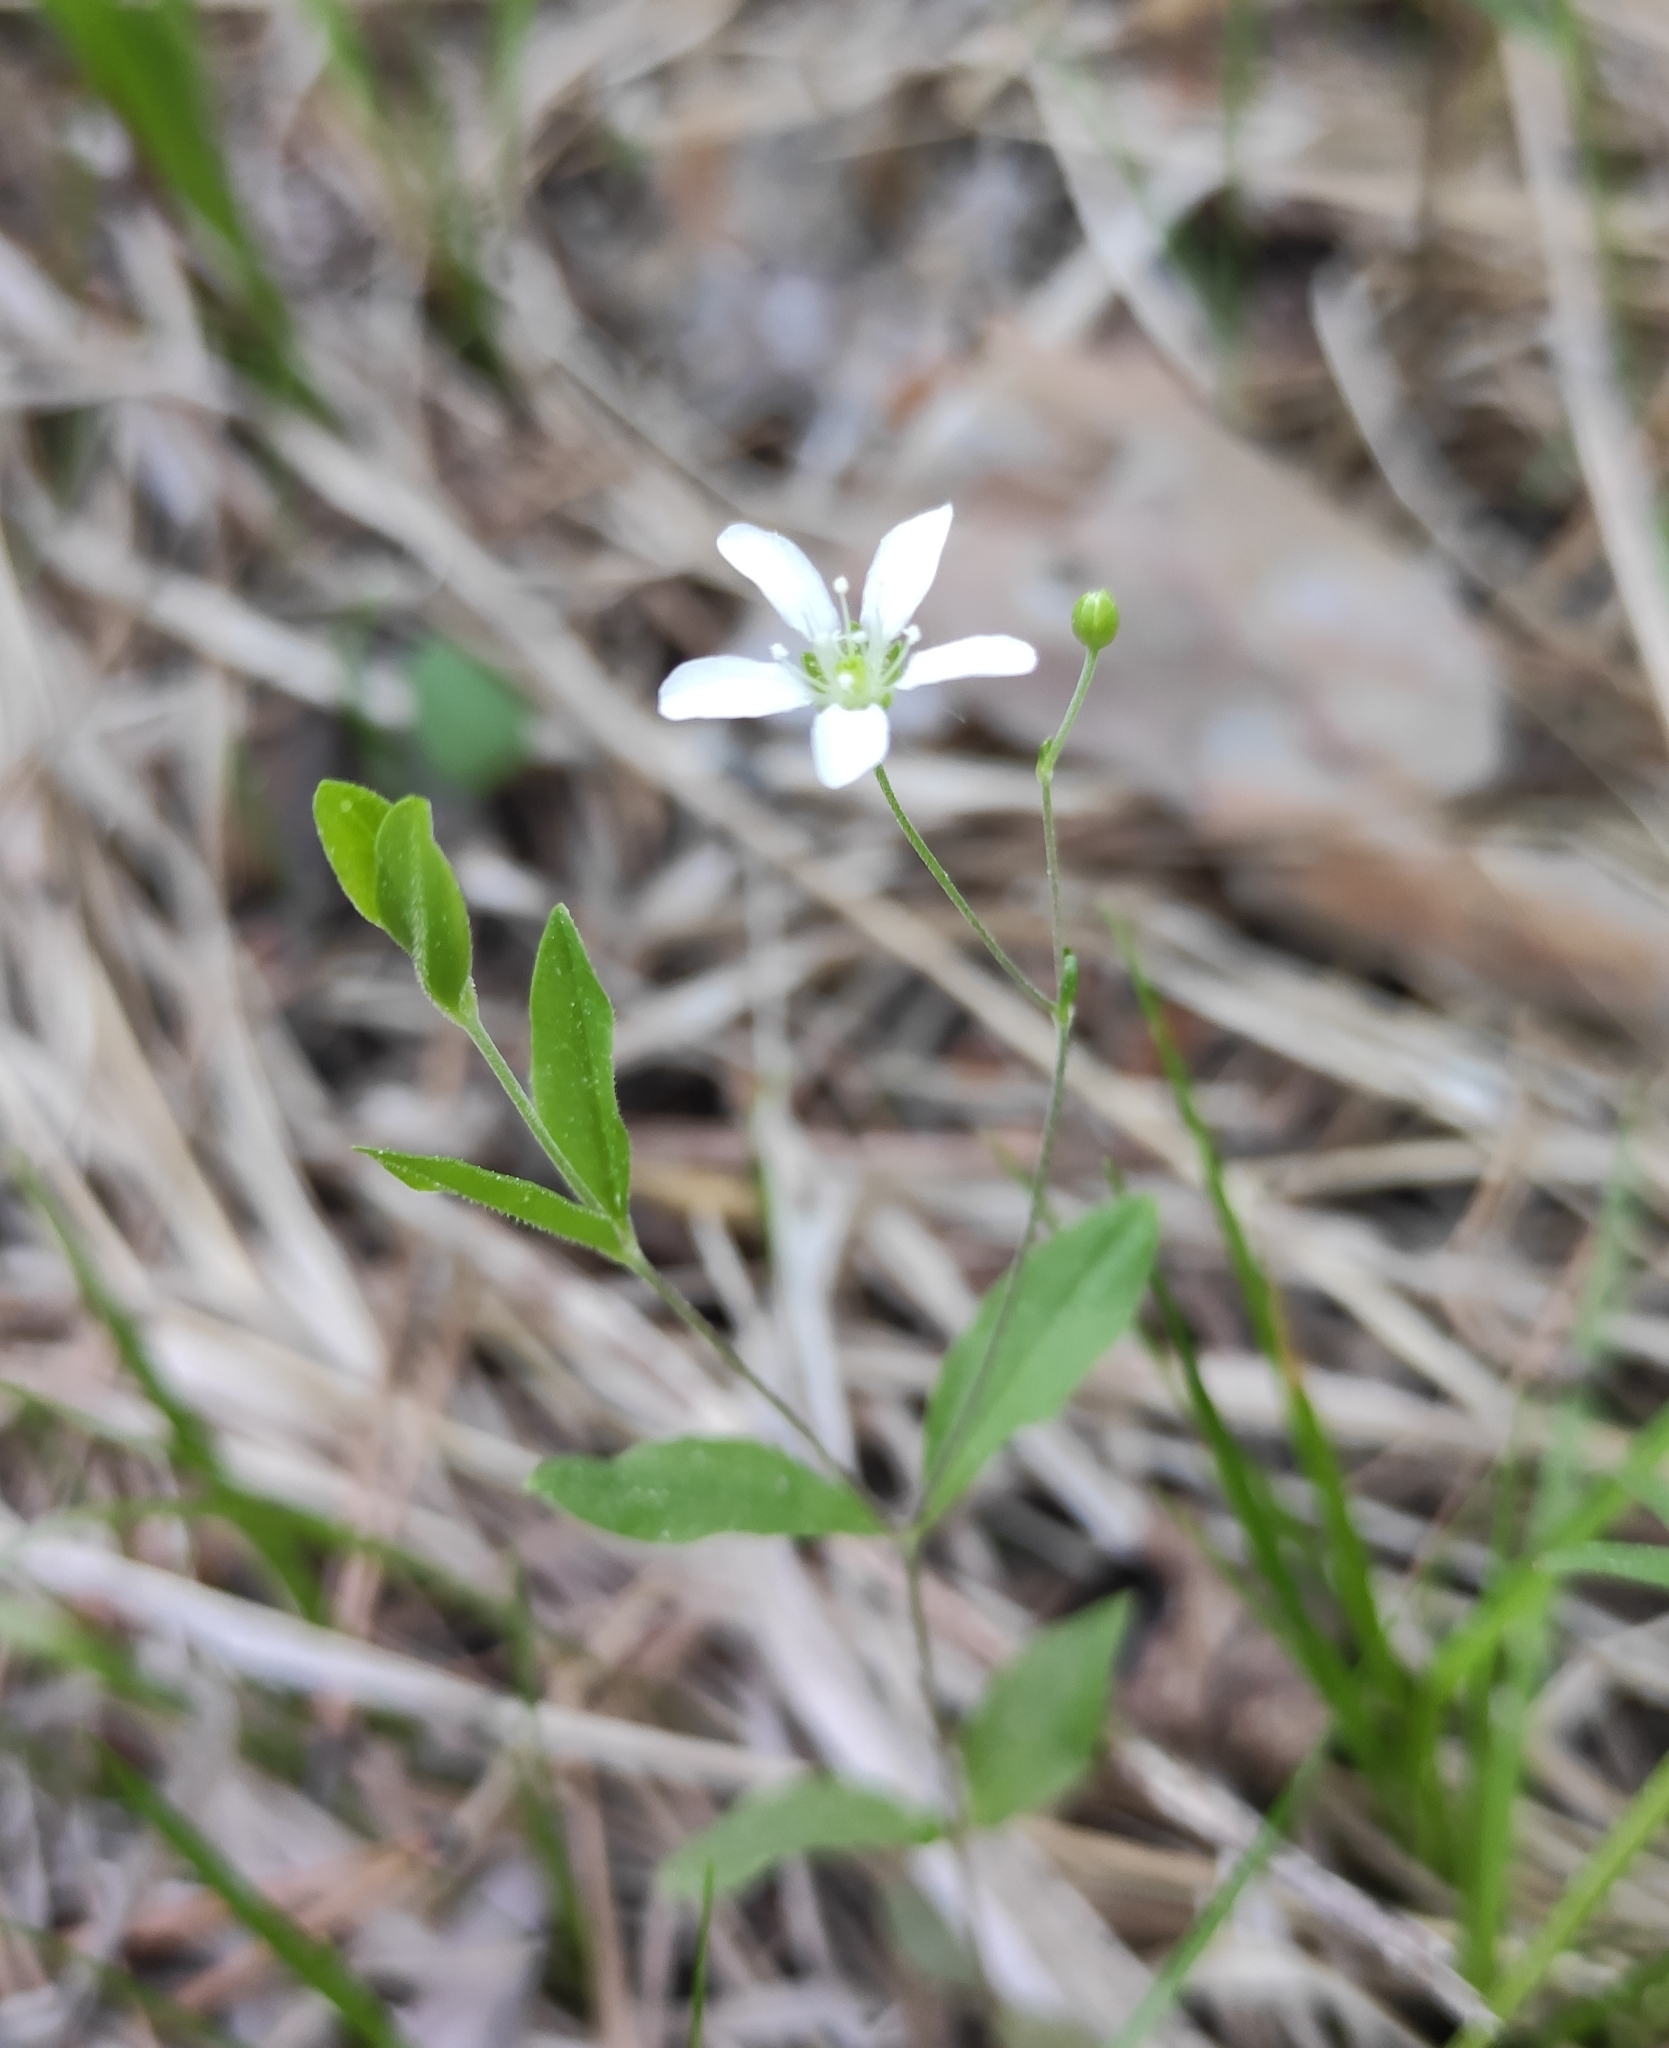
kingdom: Plantae
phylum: Tracheophyta
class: Magnoliopsida
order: Caryophyllales
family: Caryophyllaceae
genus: Moehringia
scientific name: Moehringia lateriflora
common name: Blunt-leaved sandwort
